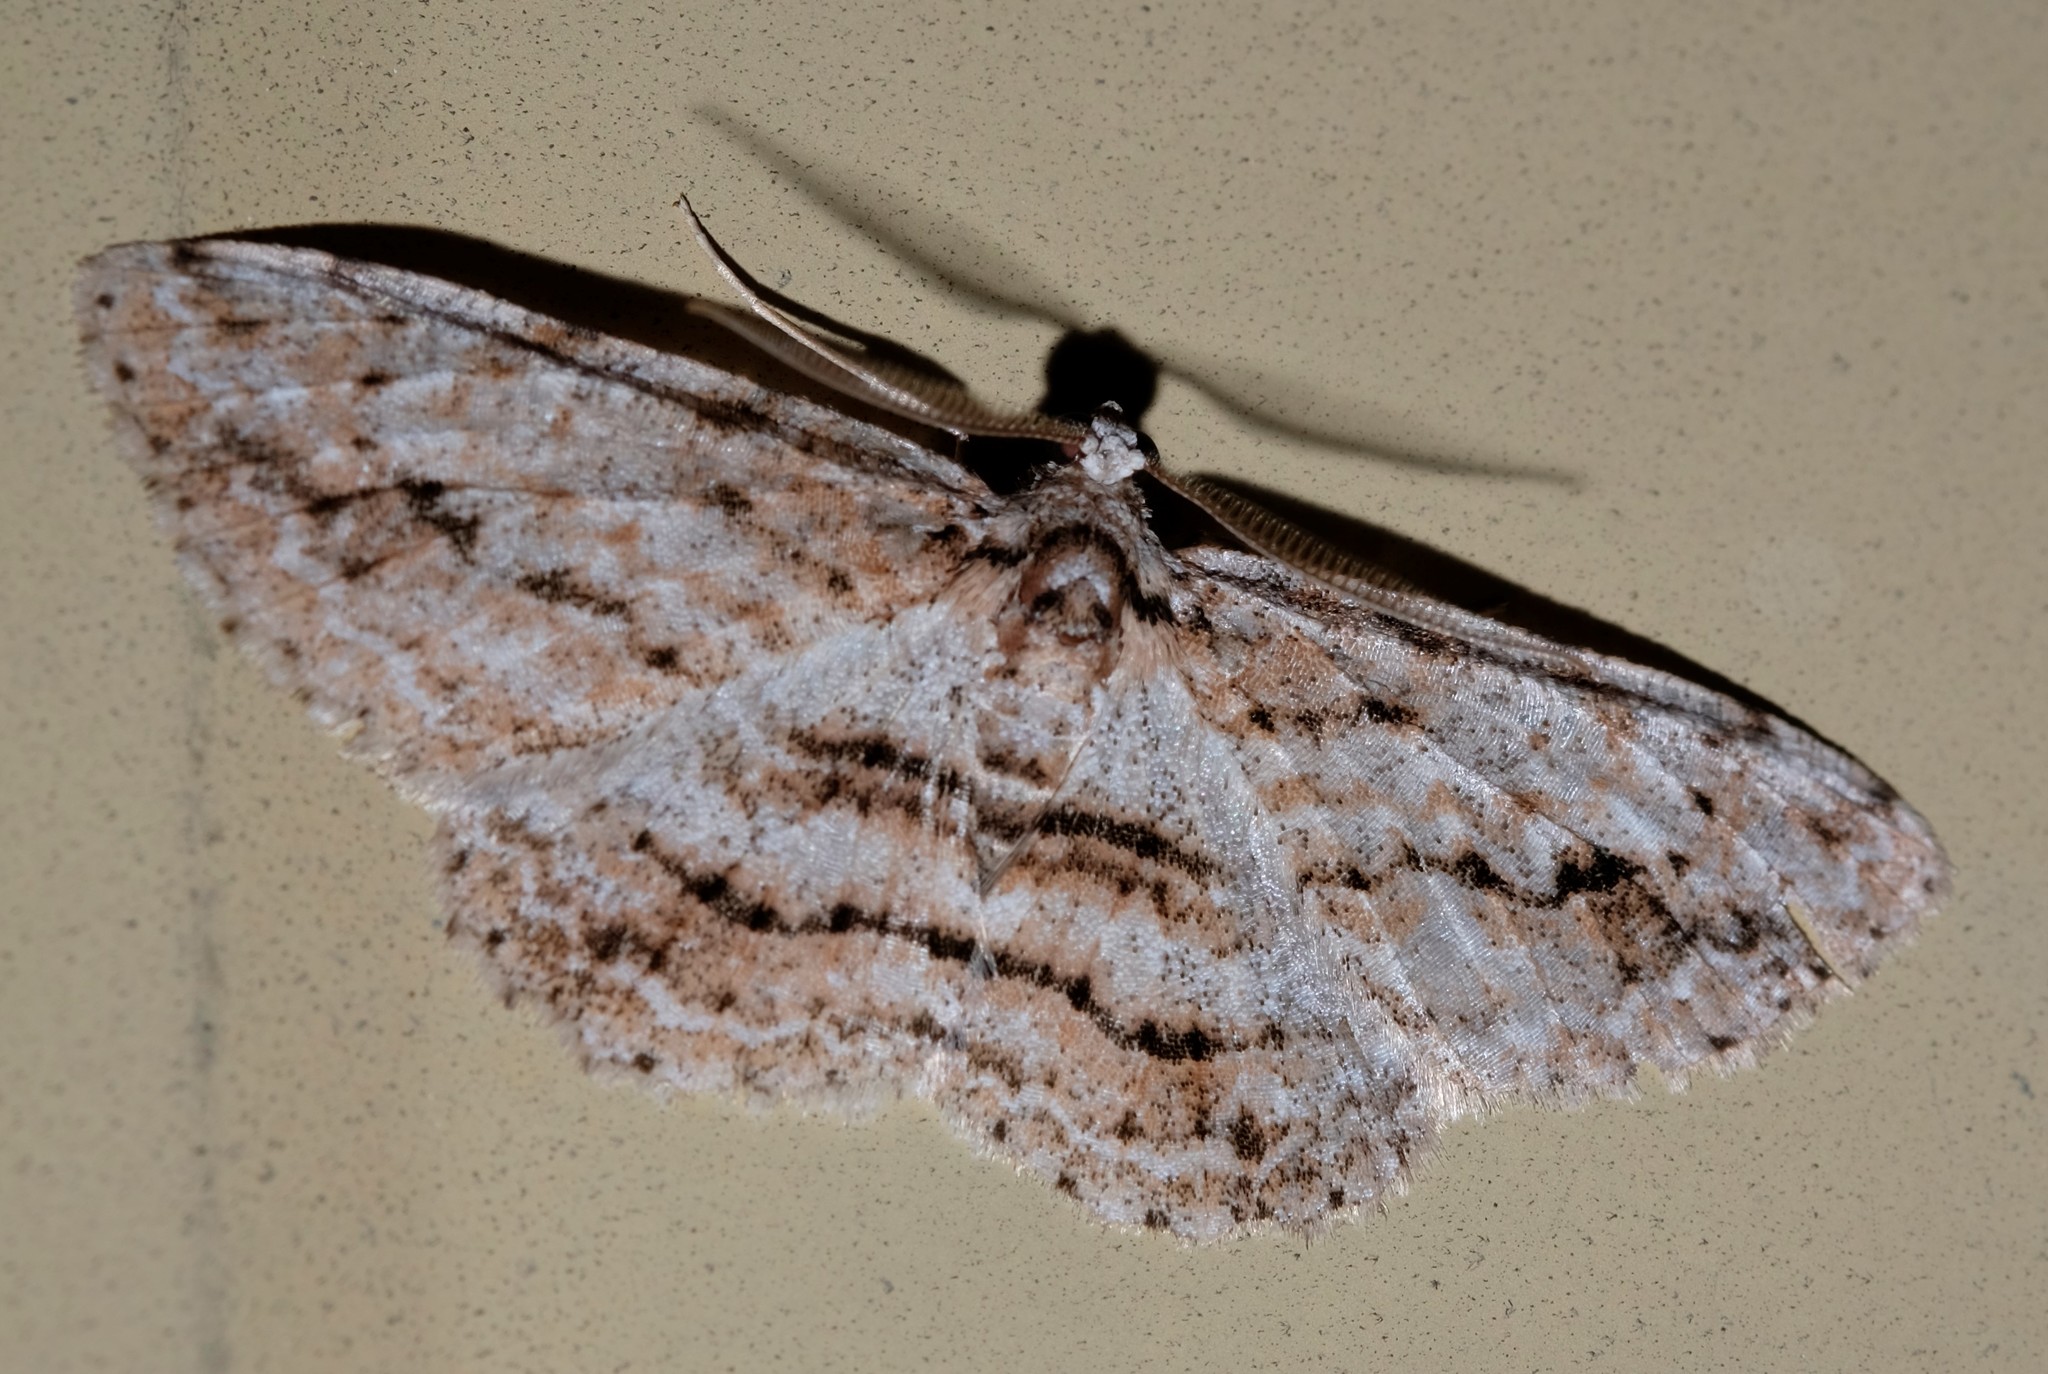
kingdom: Animalia
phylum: Arthropoda
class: Insecta
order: Lepidoptera
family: Geometridae
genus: Didymoctenia
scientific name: Didymoctenia exsuperata
